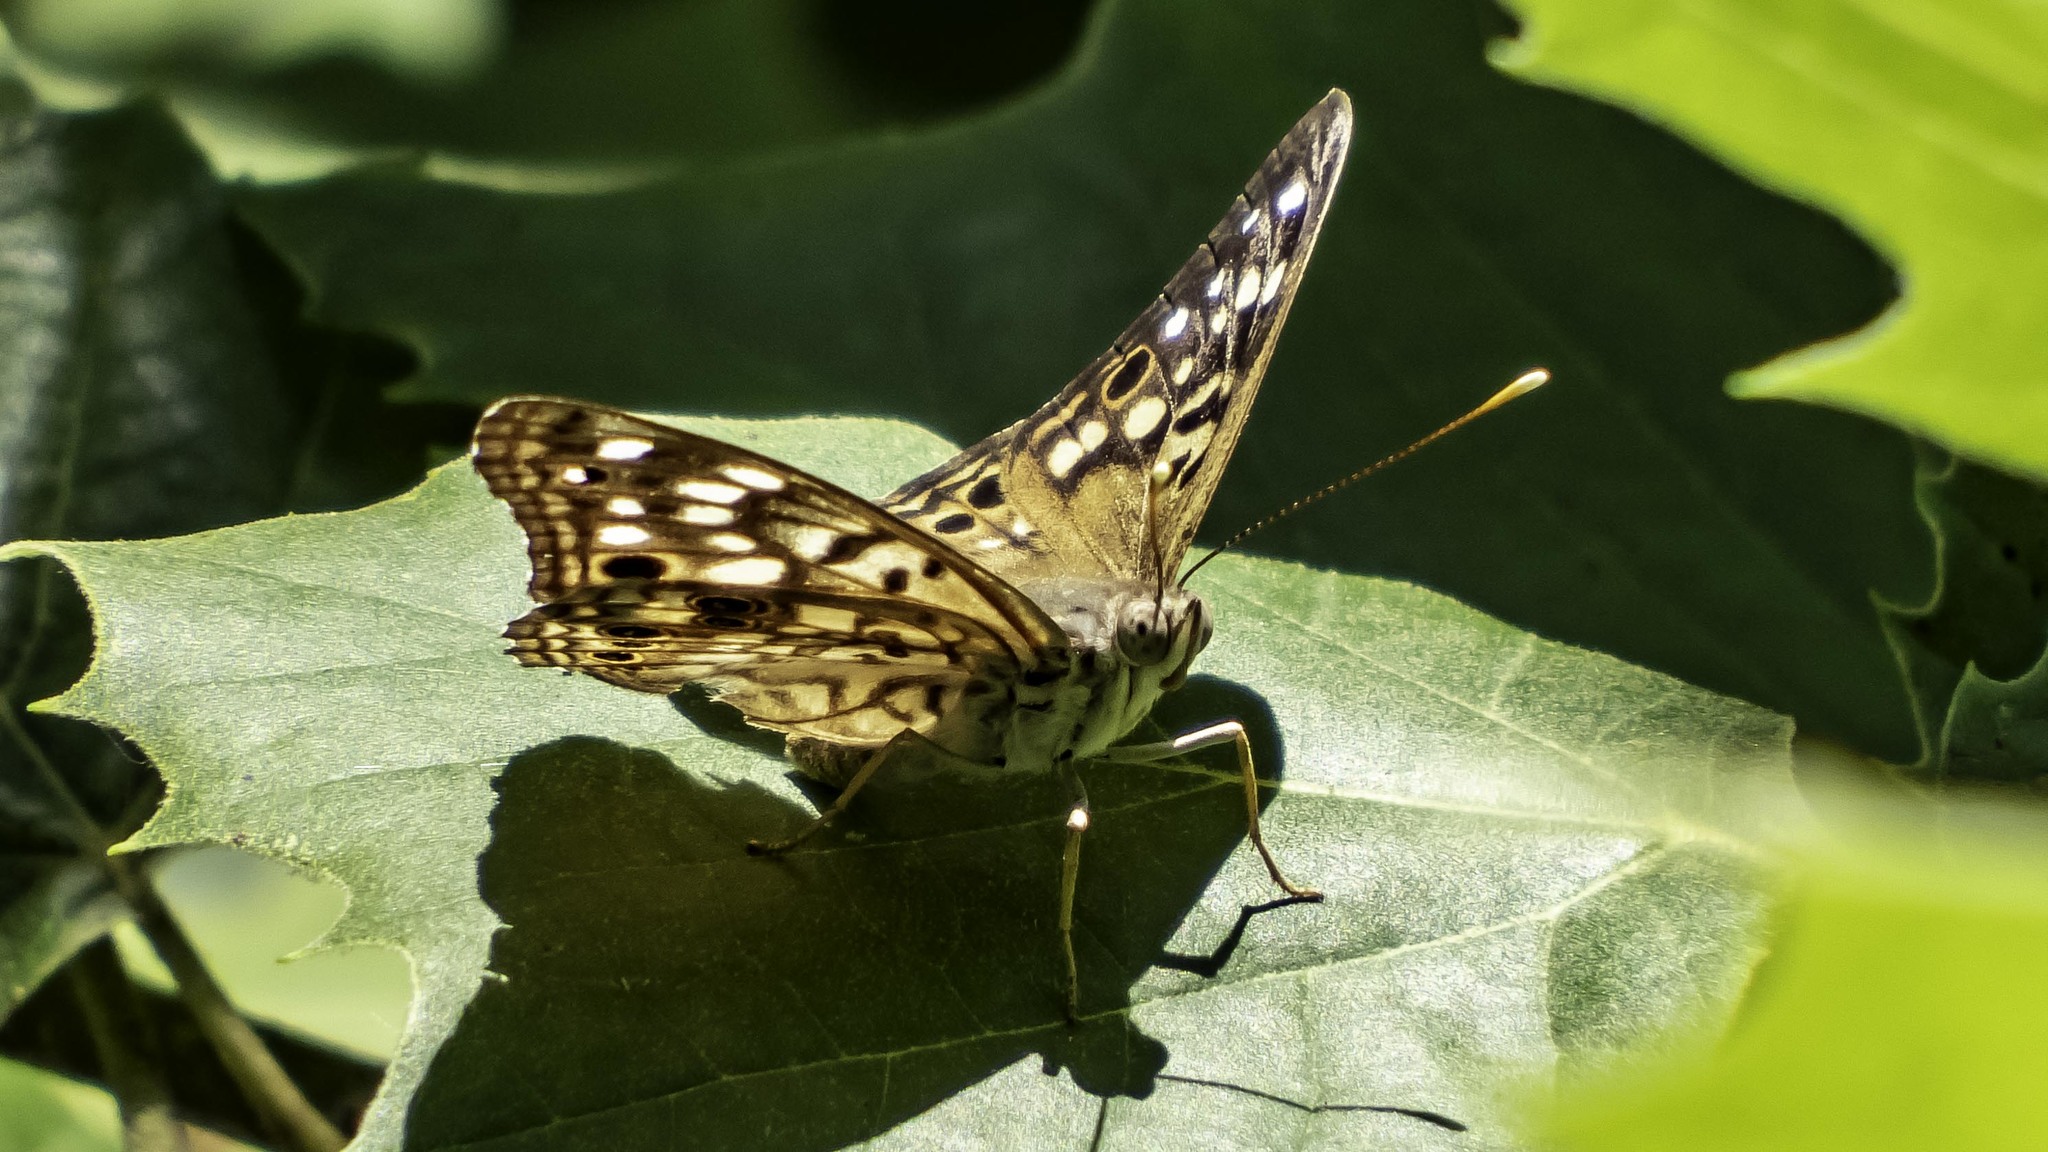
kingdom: Animalia
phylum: Arthropoda
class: Insecta
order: Lepidoptera
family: Nymphalidae
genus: Asterocampa
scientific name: Asterocampa celtis
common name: Hackberry emperor
